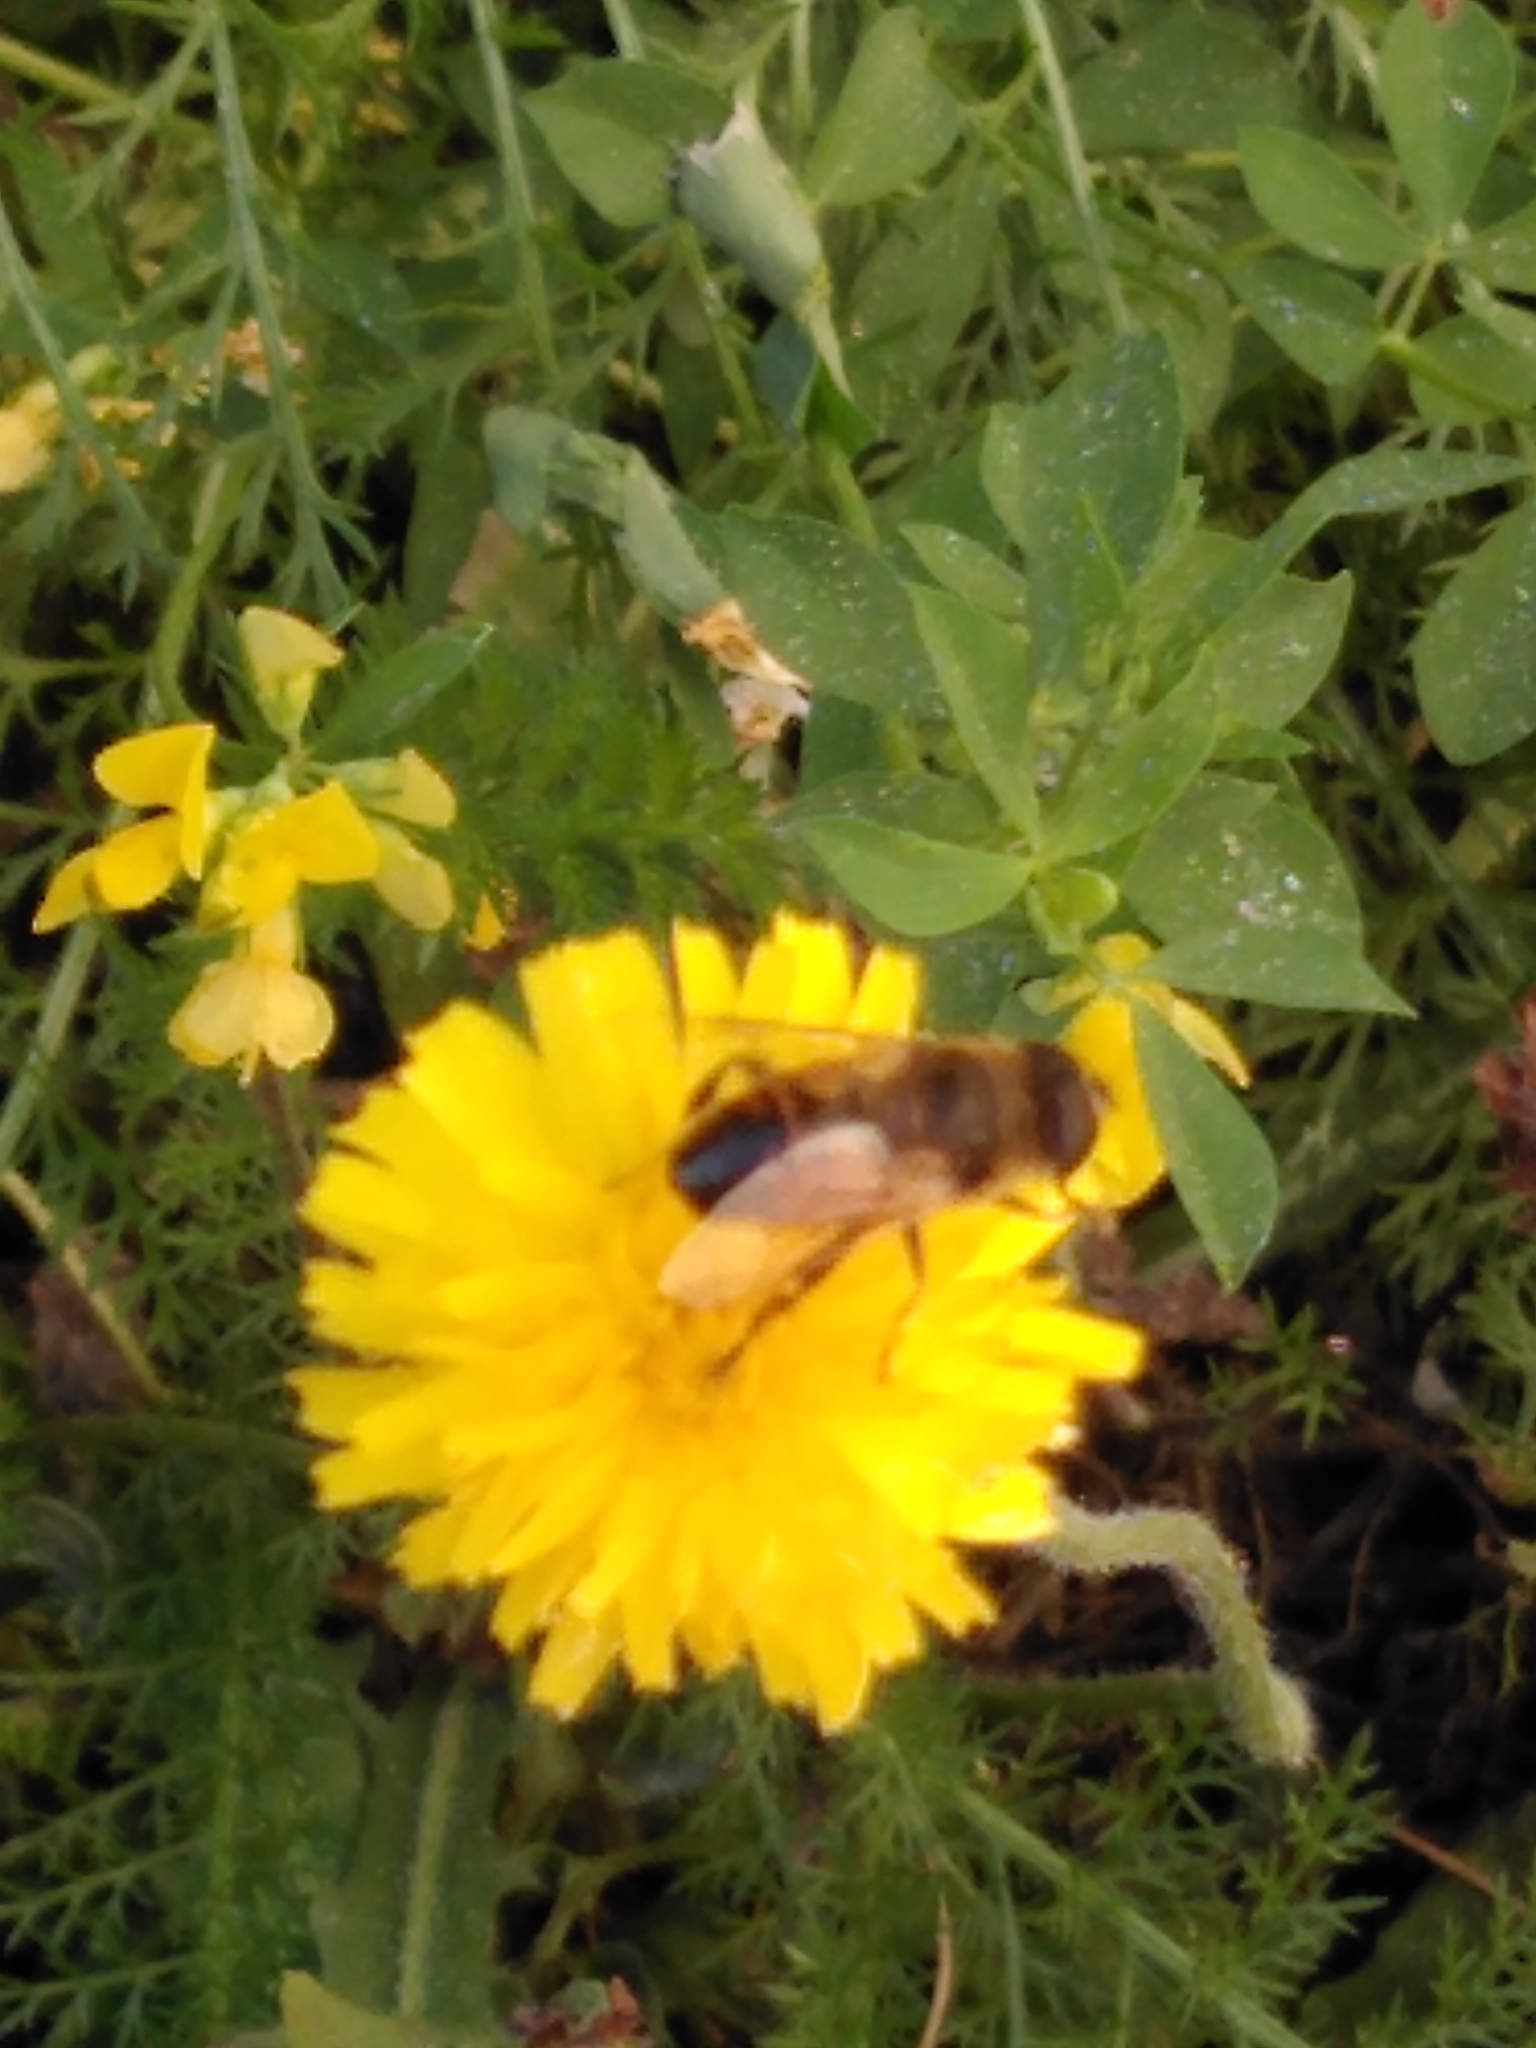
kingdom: Animalia
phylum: Arthropoda
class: Insecta
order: Diptera
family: Syrphidae
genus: Eristalis
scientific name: Eristalis tenax
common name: Drone fly
